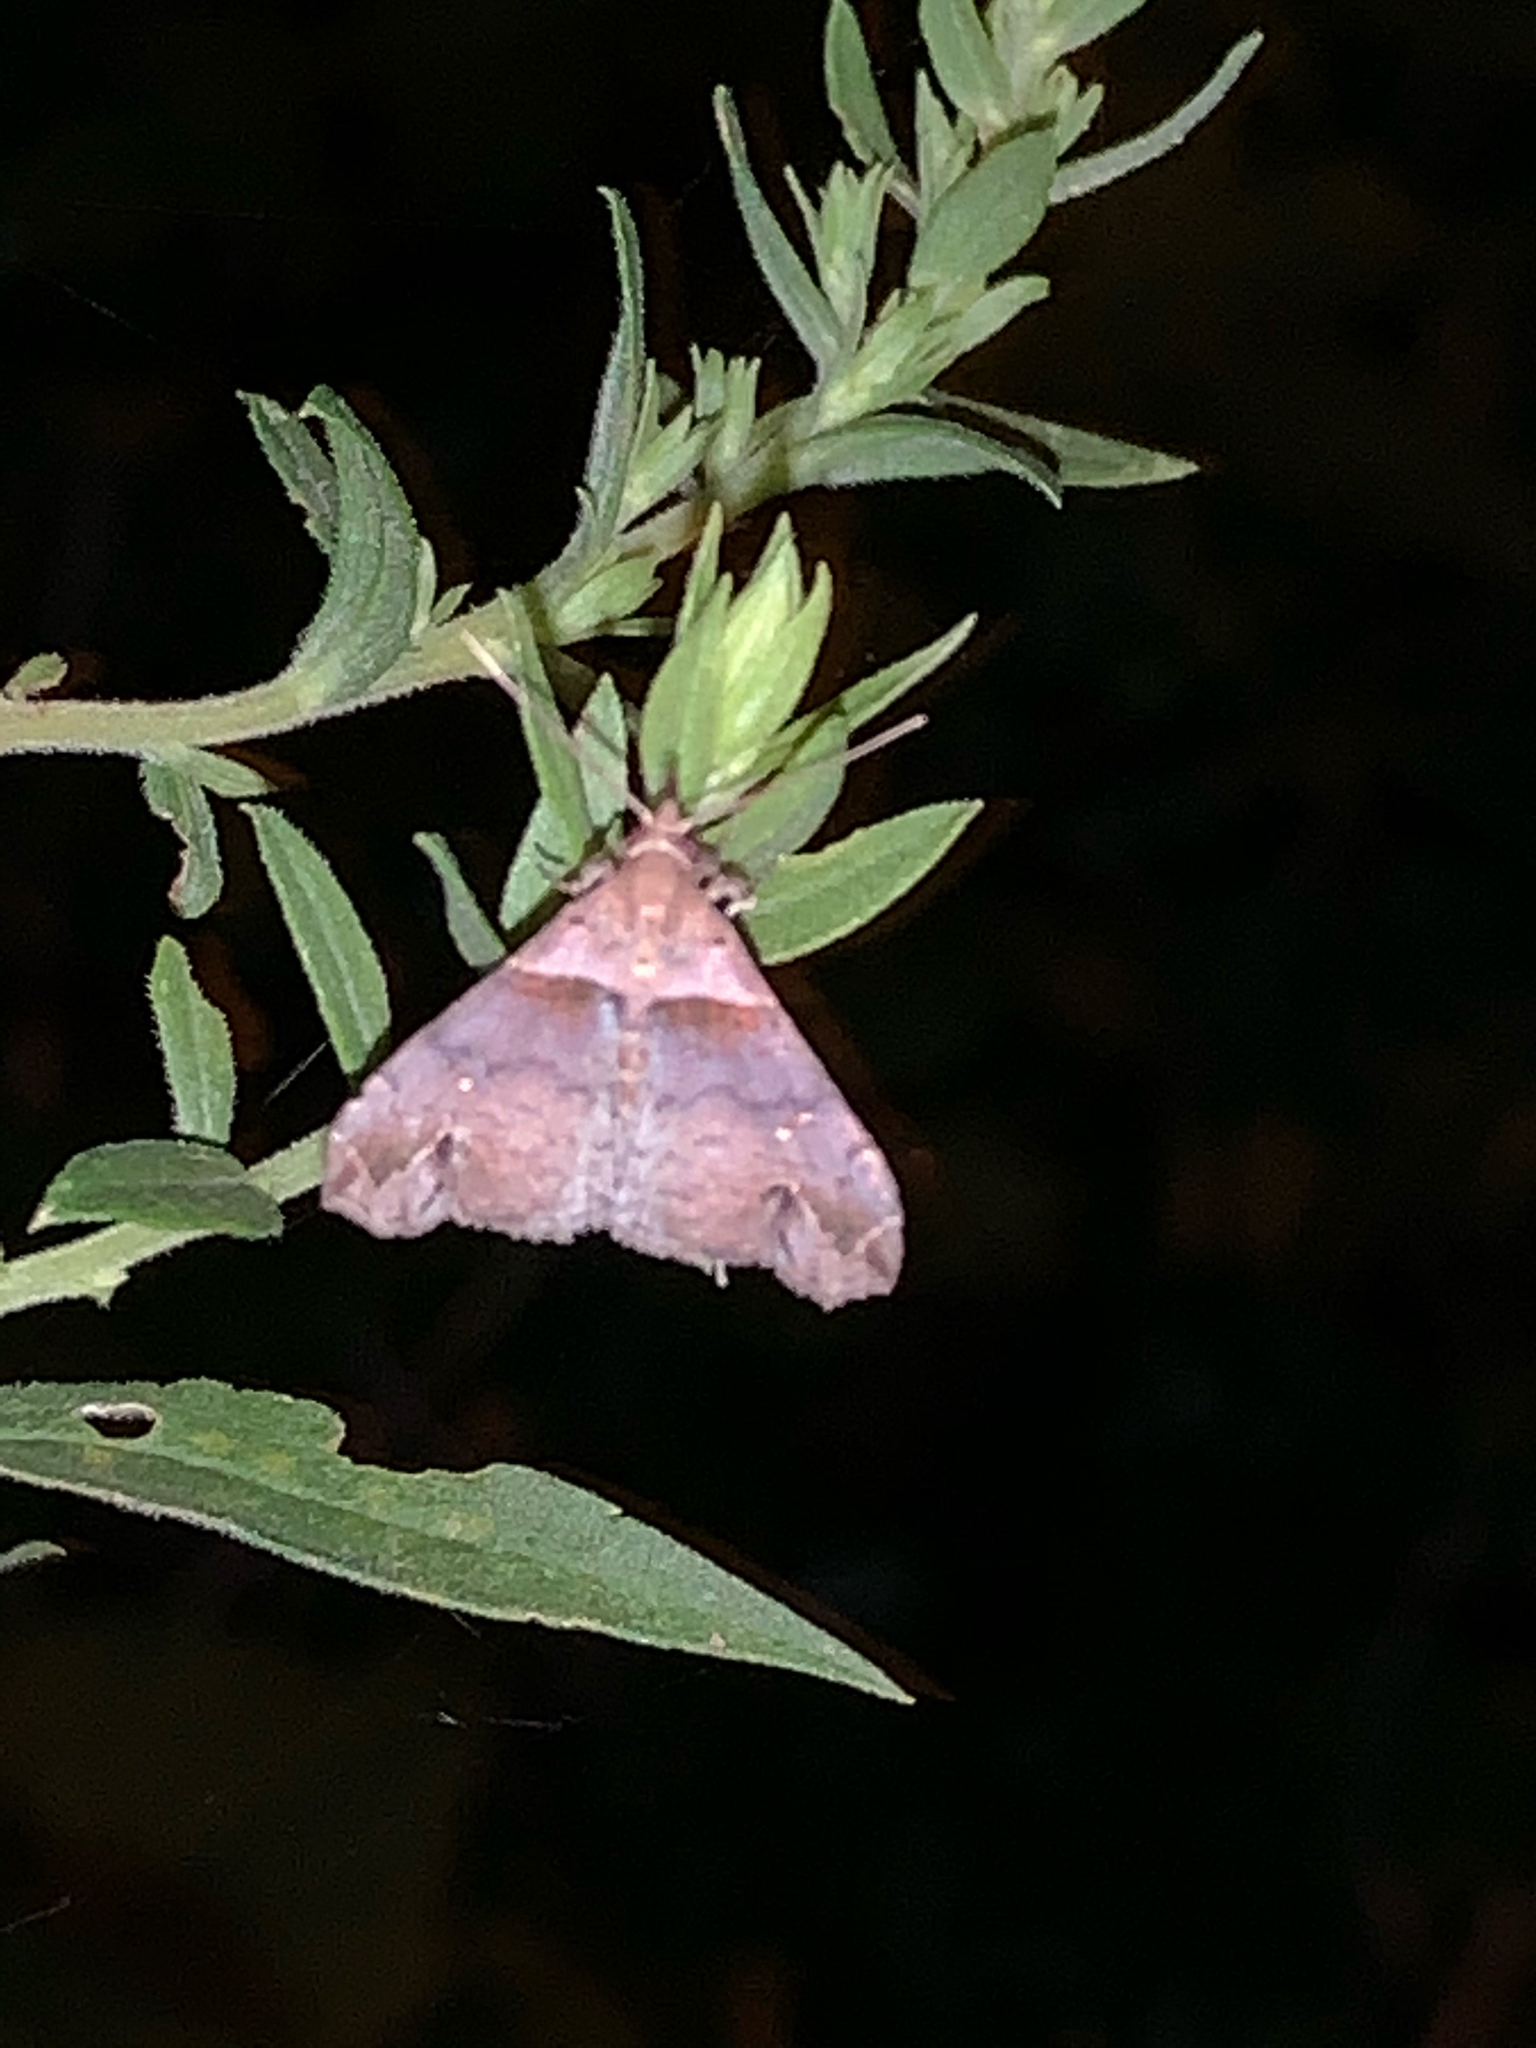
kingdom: Animalia
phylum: Arthropoda
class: Insecta
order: Lepidoptera
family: Erebidae
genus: Lascoria
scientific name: Lascoria ambigualis
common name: Ambiguous moth
